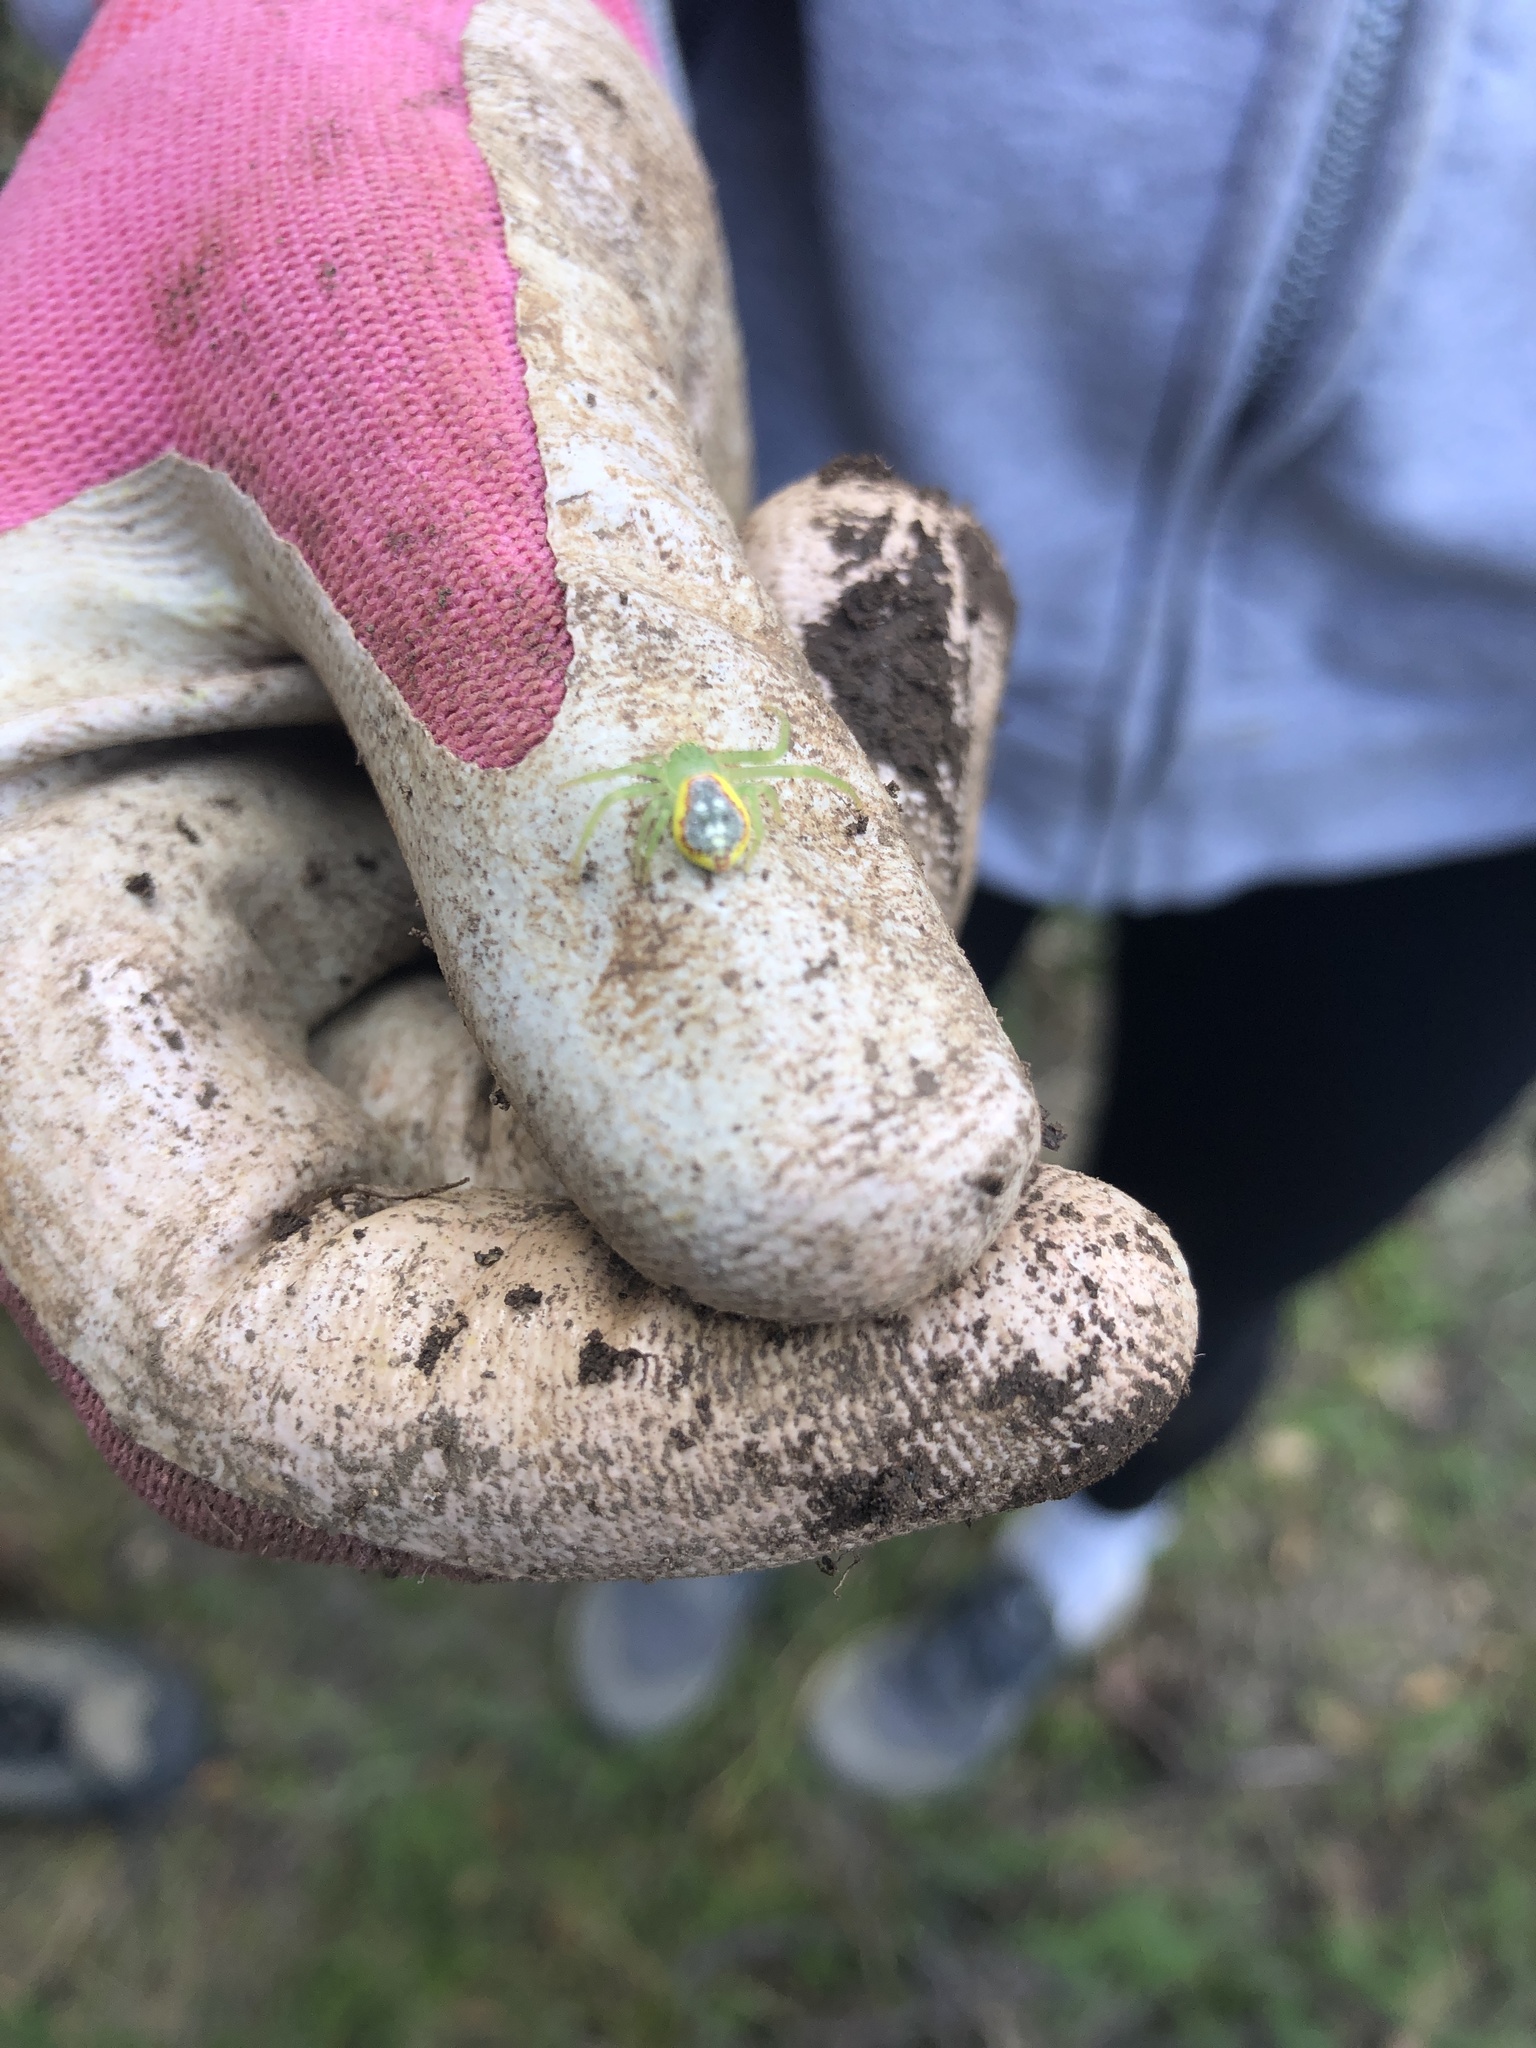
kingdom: Animalia
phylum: Arthropoda
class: Arachnida
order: Araneae
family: Thomisidae
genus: Diaea
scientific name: Diaea livens
